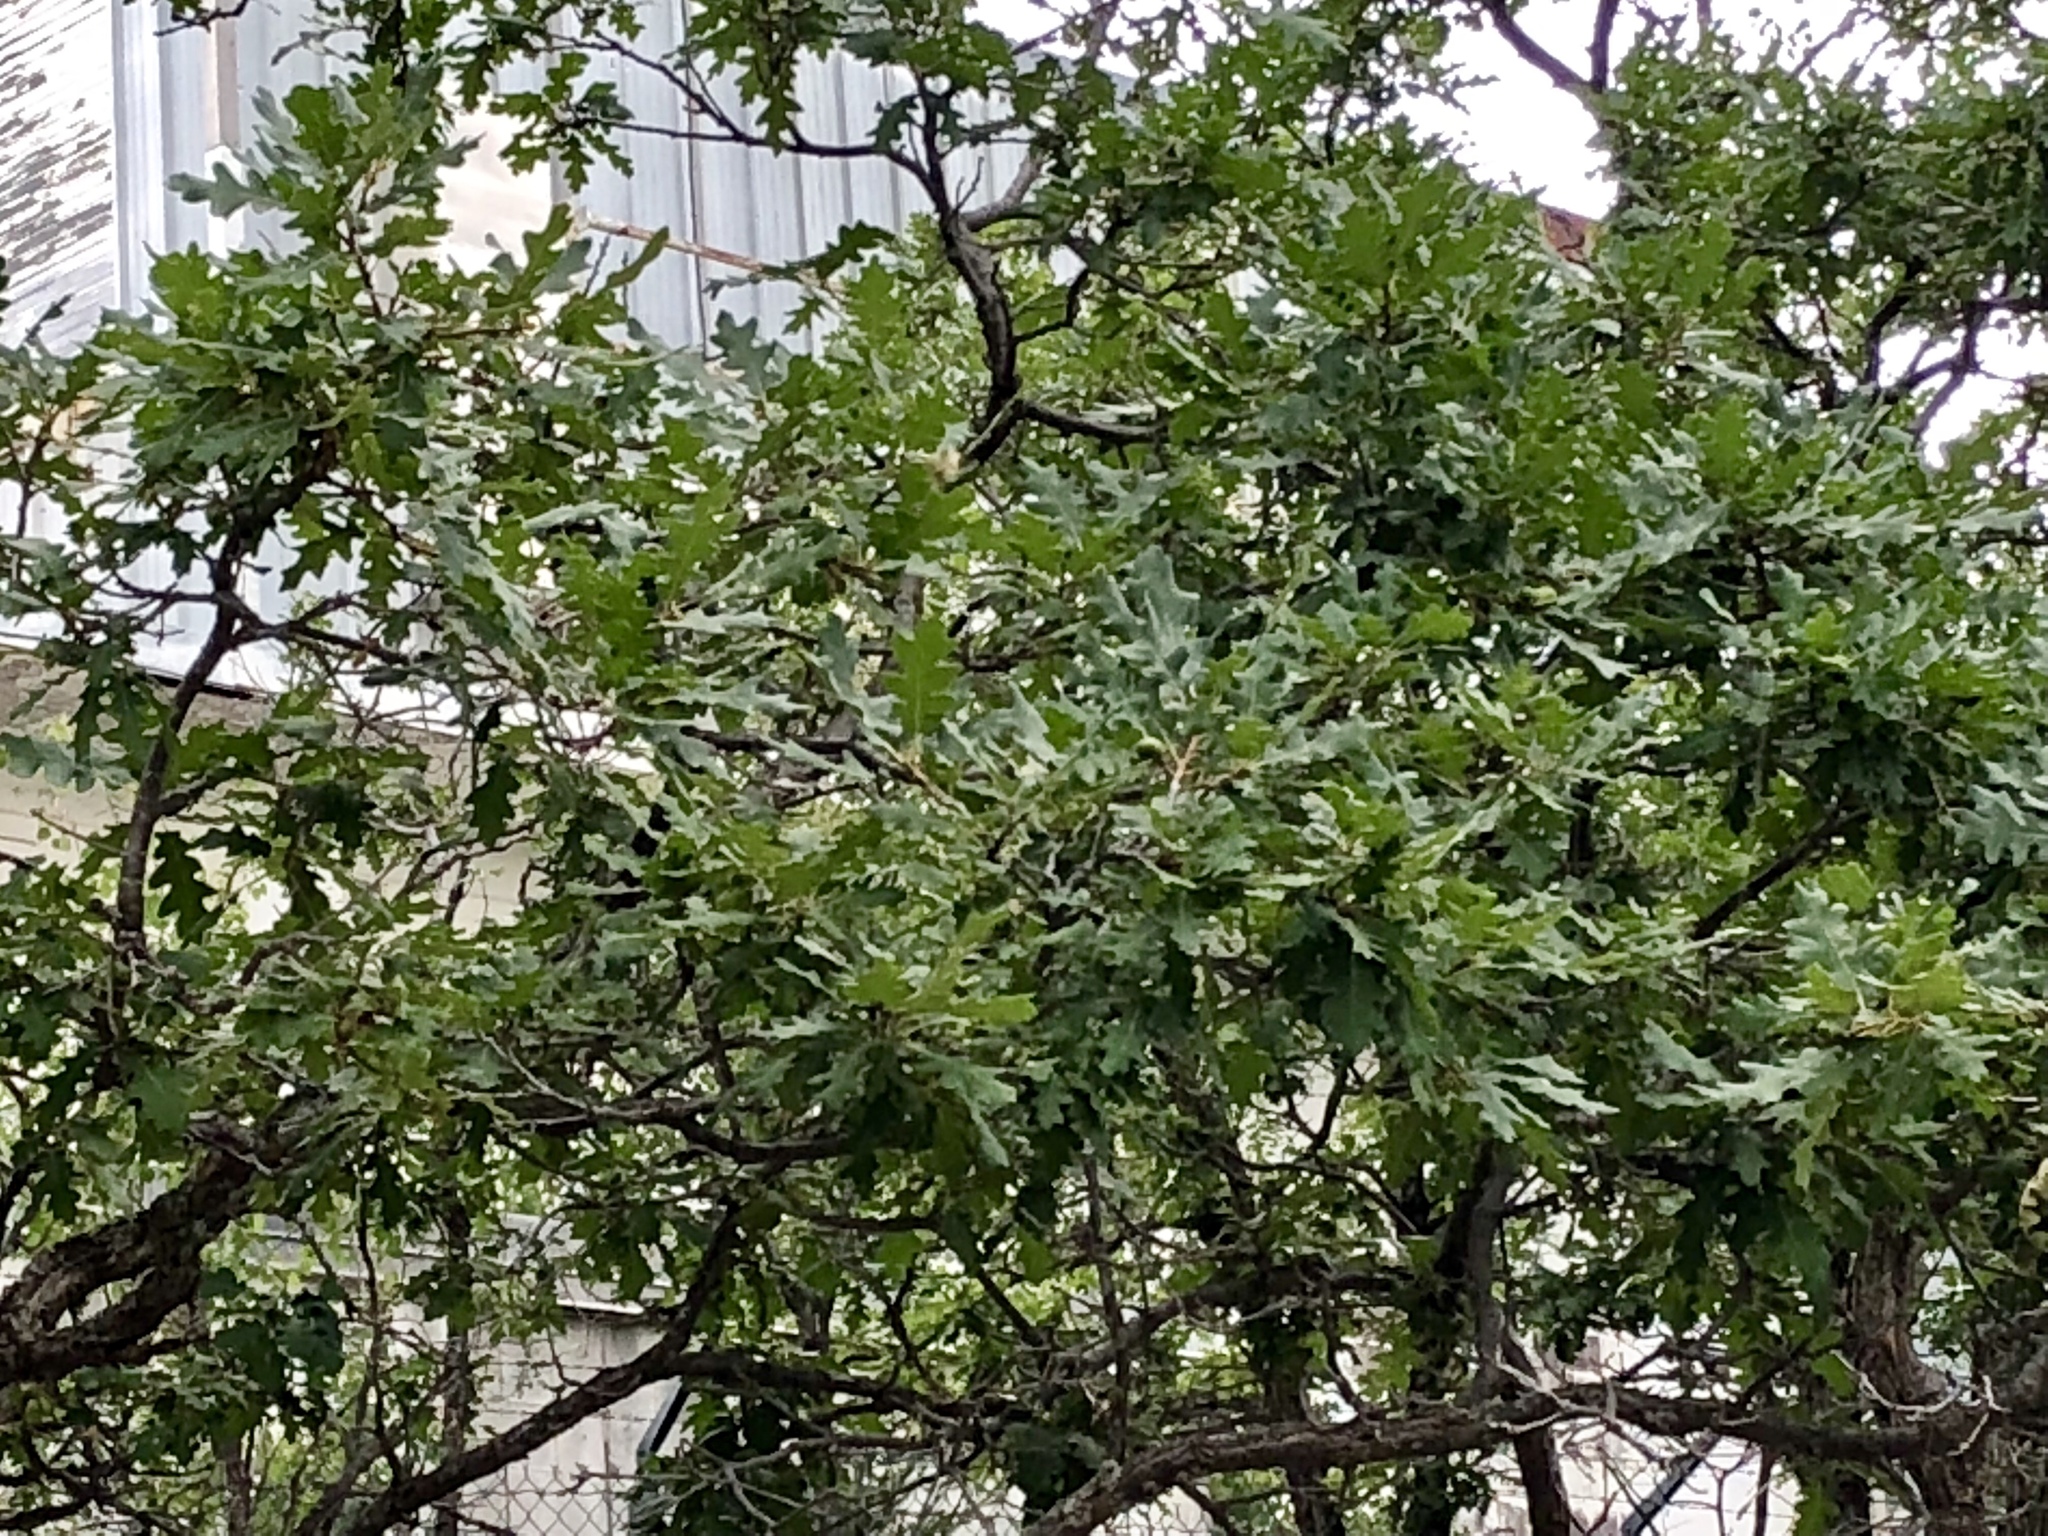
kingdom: Plantae
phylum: Tracheophyta
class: Magnoliopsida
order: Fagales
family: Fagaceae
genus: Quercus
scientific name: Quercus gambelii
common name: Gambel oak
